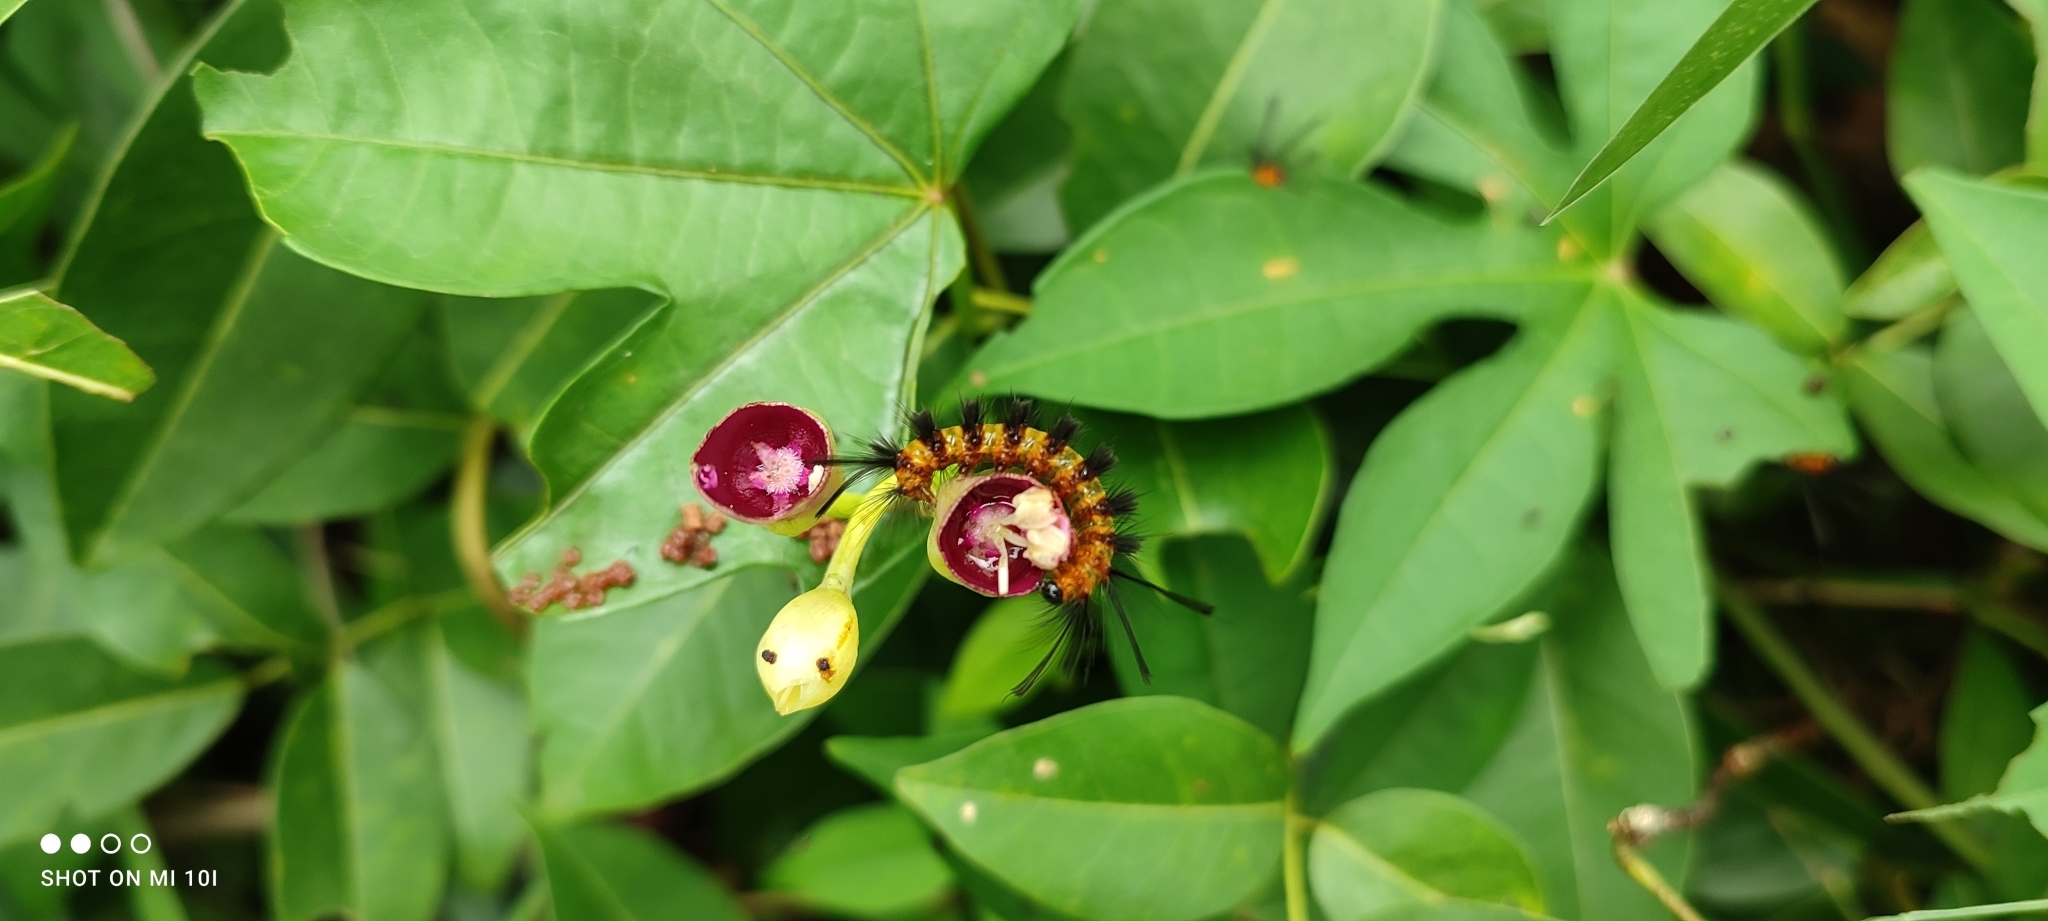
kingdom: Animalia
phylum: Arthropoda
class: Insecta
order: Lepidoptera
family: Erebidae
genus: Euchromia
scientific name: Euchromia polymena
